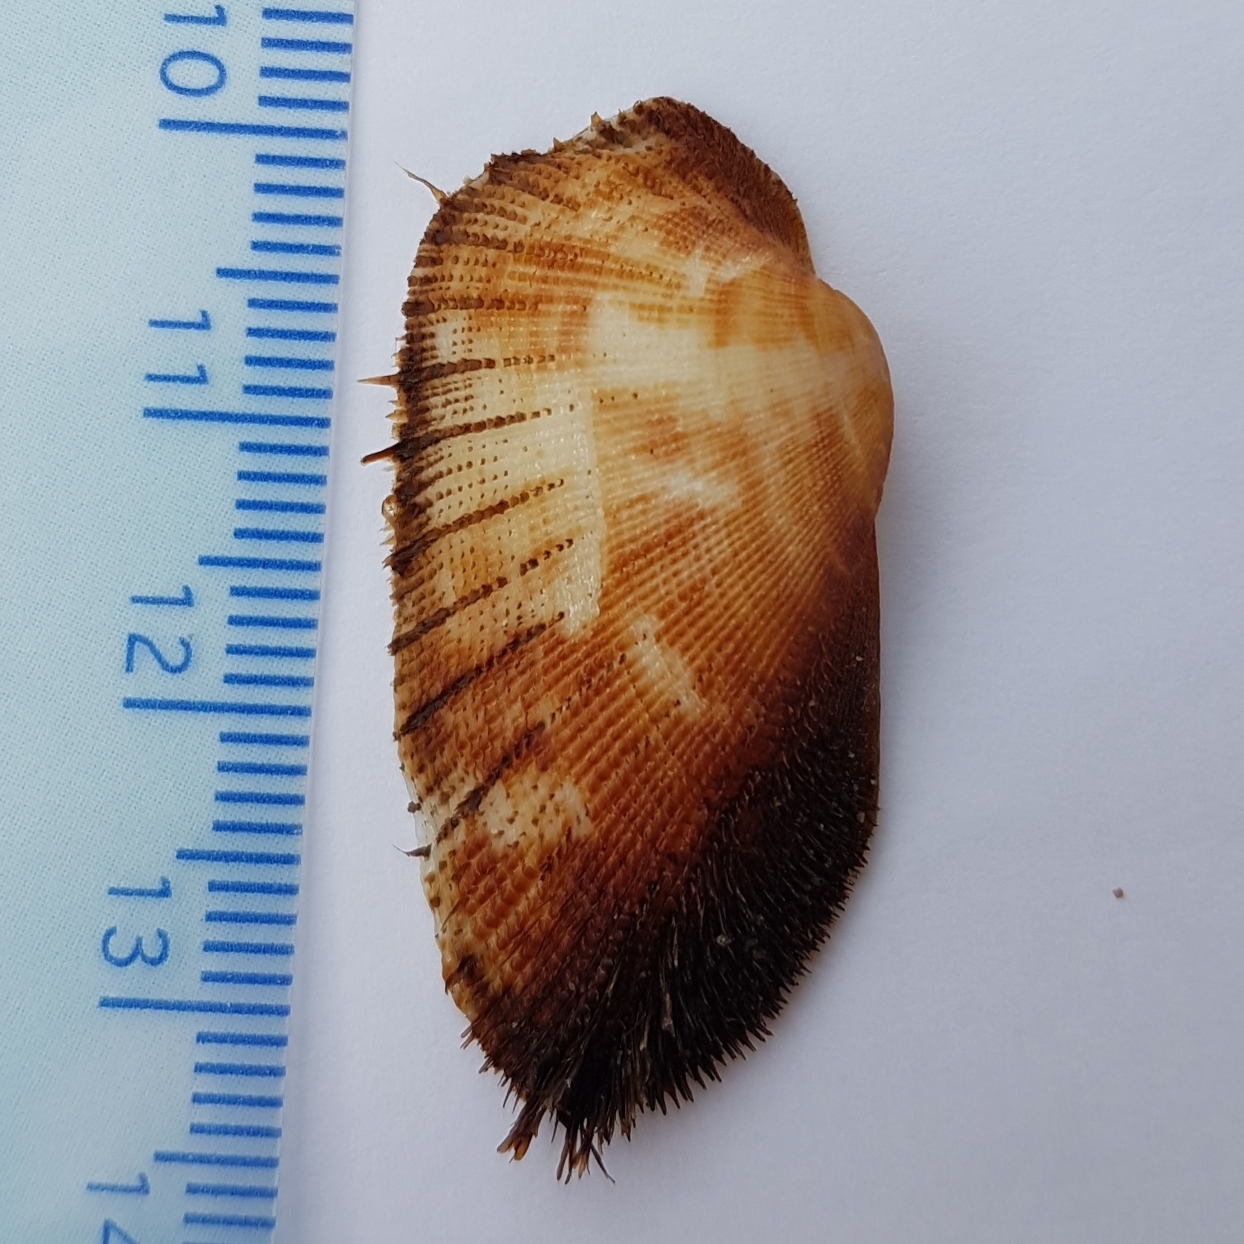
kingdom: Animalia
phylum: Mollusca
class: Bivalvia
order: Arcida
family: Arcidae
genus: Barbatia
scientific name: Barbatia barbata
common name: Bearded ark
